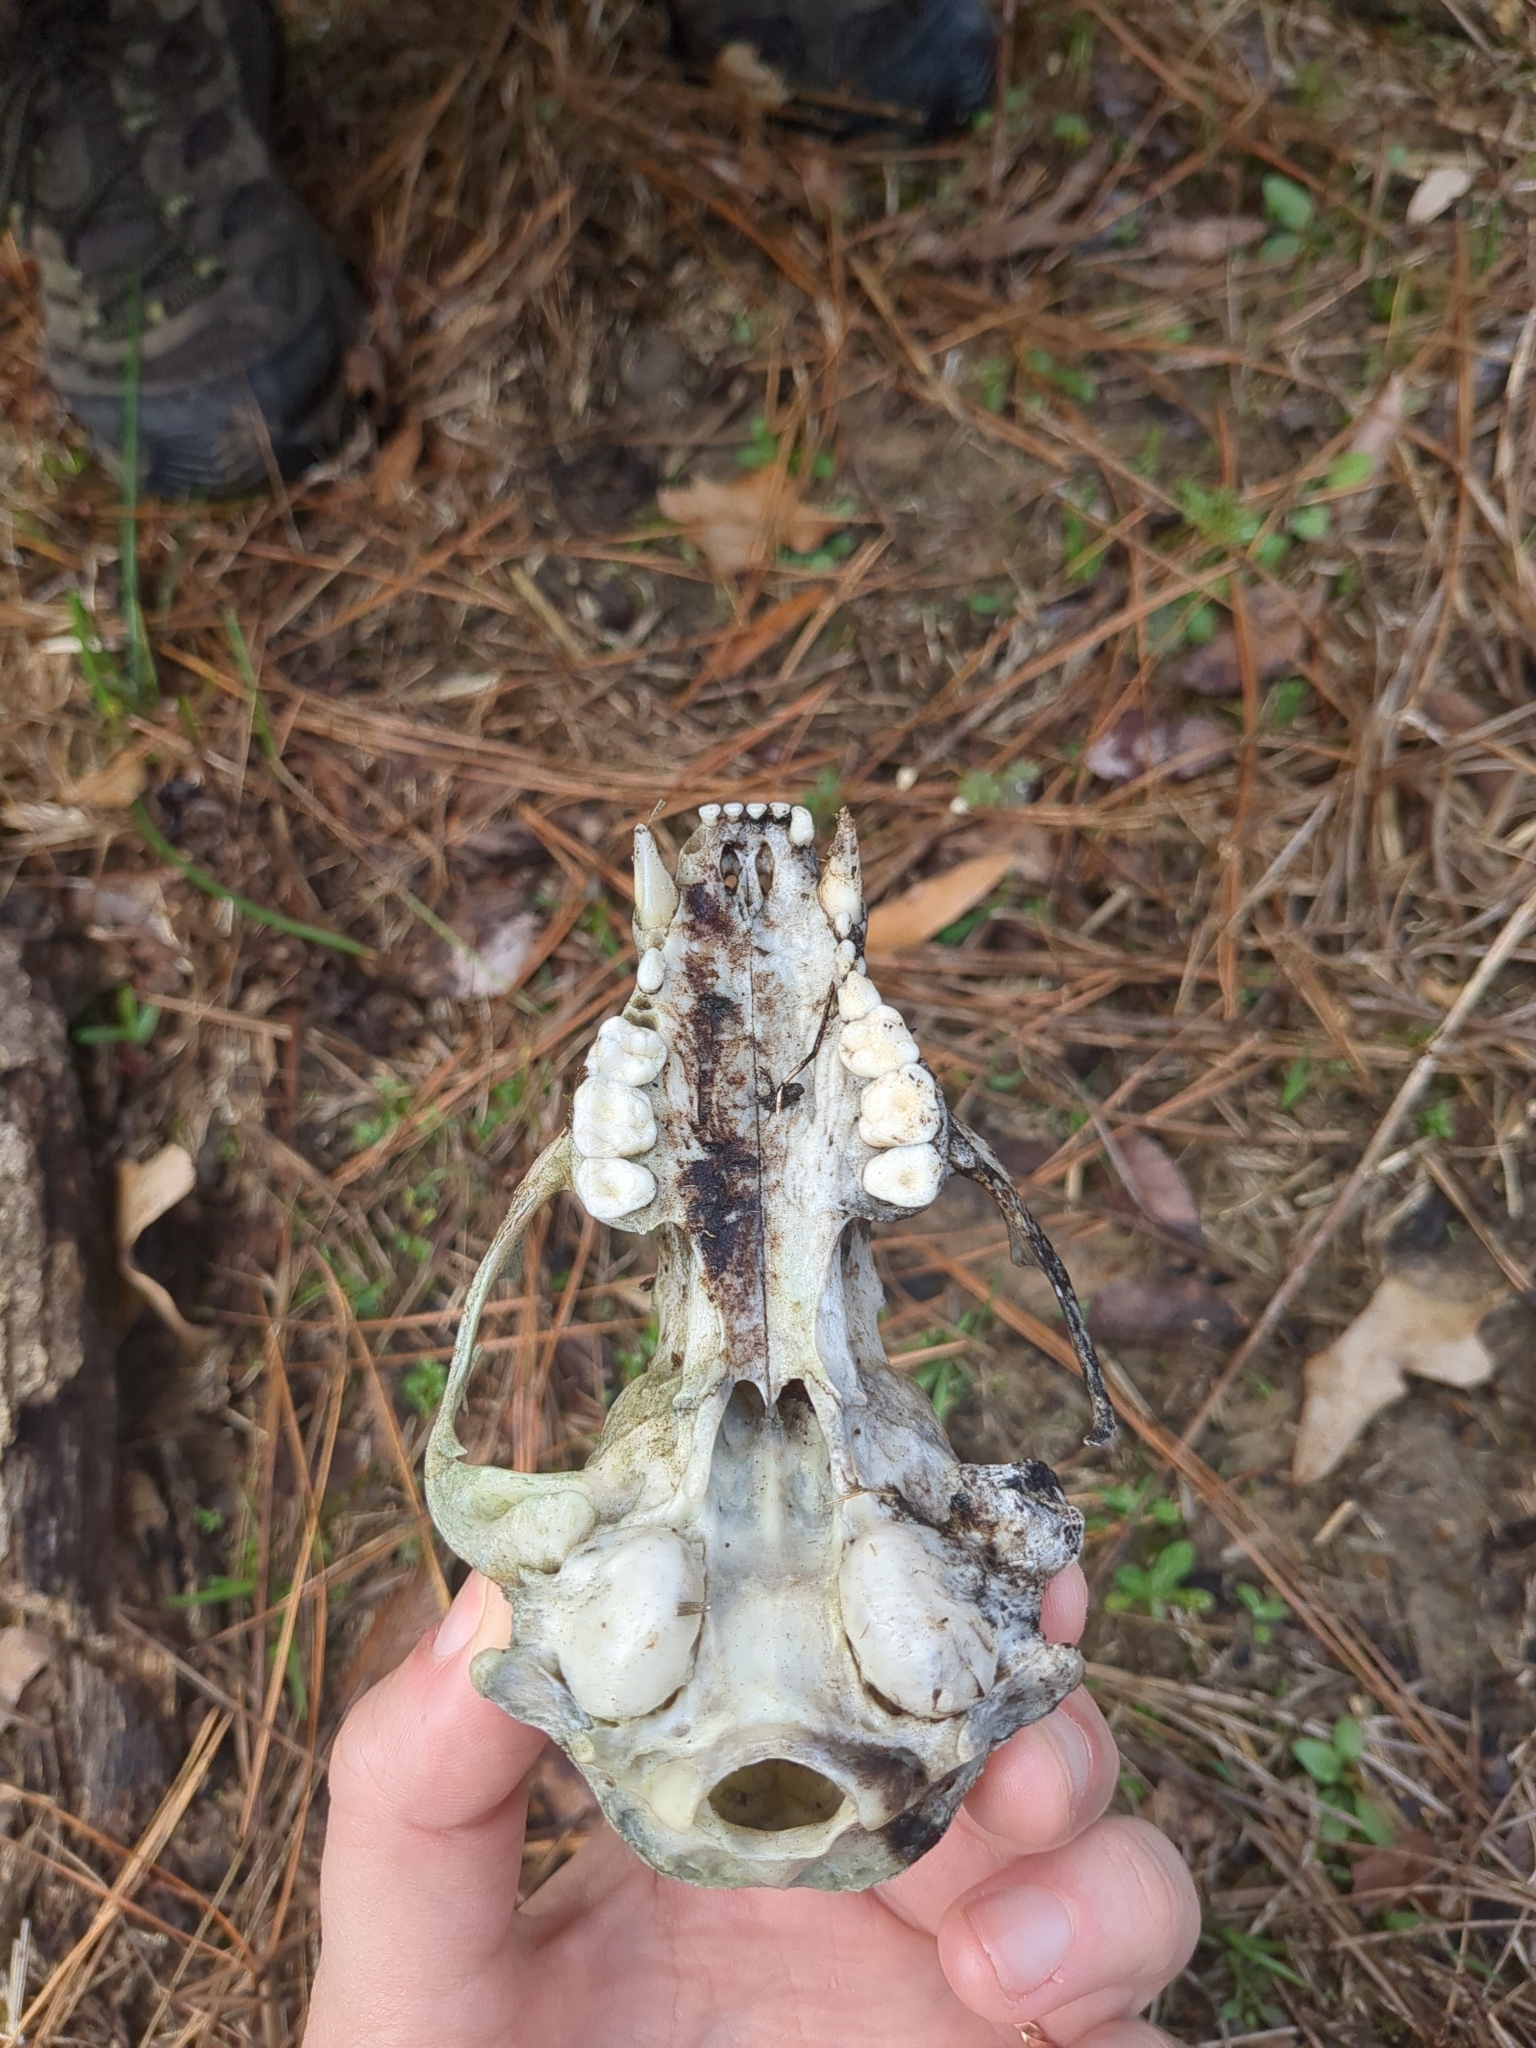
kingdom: Animalia
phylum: Chordata
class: Mammalia
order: Carnivora
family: Procyonidae
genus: Procyon
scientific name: Procyon lotor
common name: Raccoon
